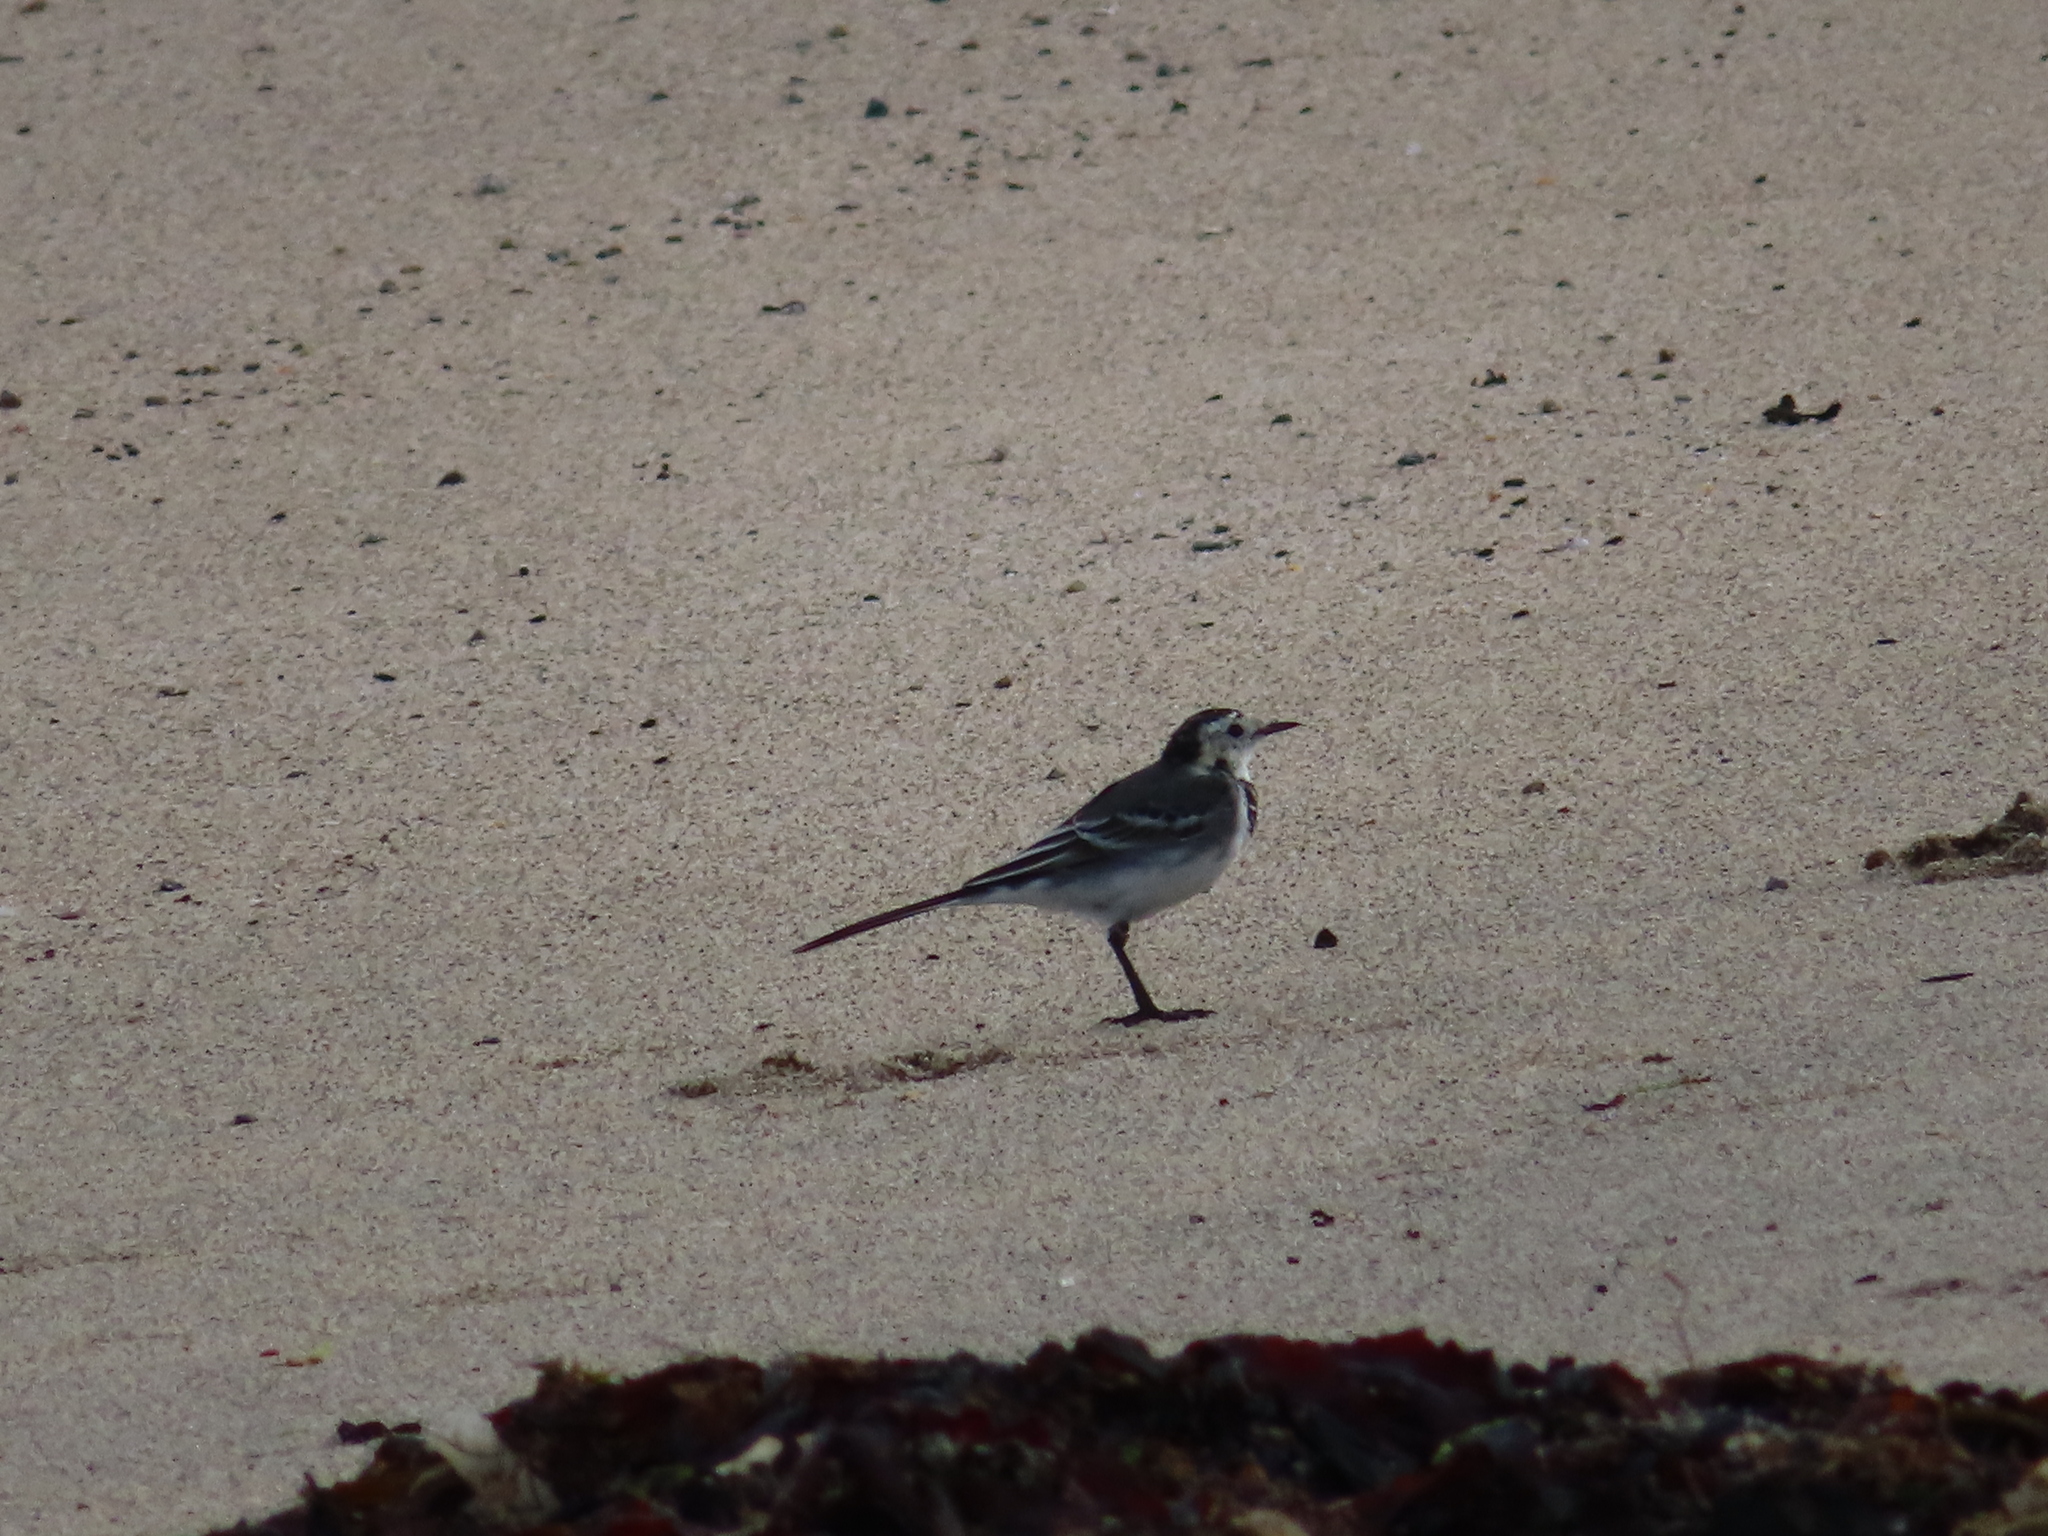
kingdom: Animalia
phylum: Chordata
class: Aves
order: Passeriformes
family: Motacillidae
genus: Motacilla
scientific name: Motacilla alba
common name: White wagtail
